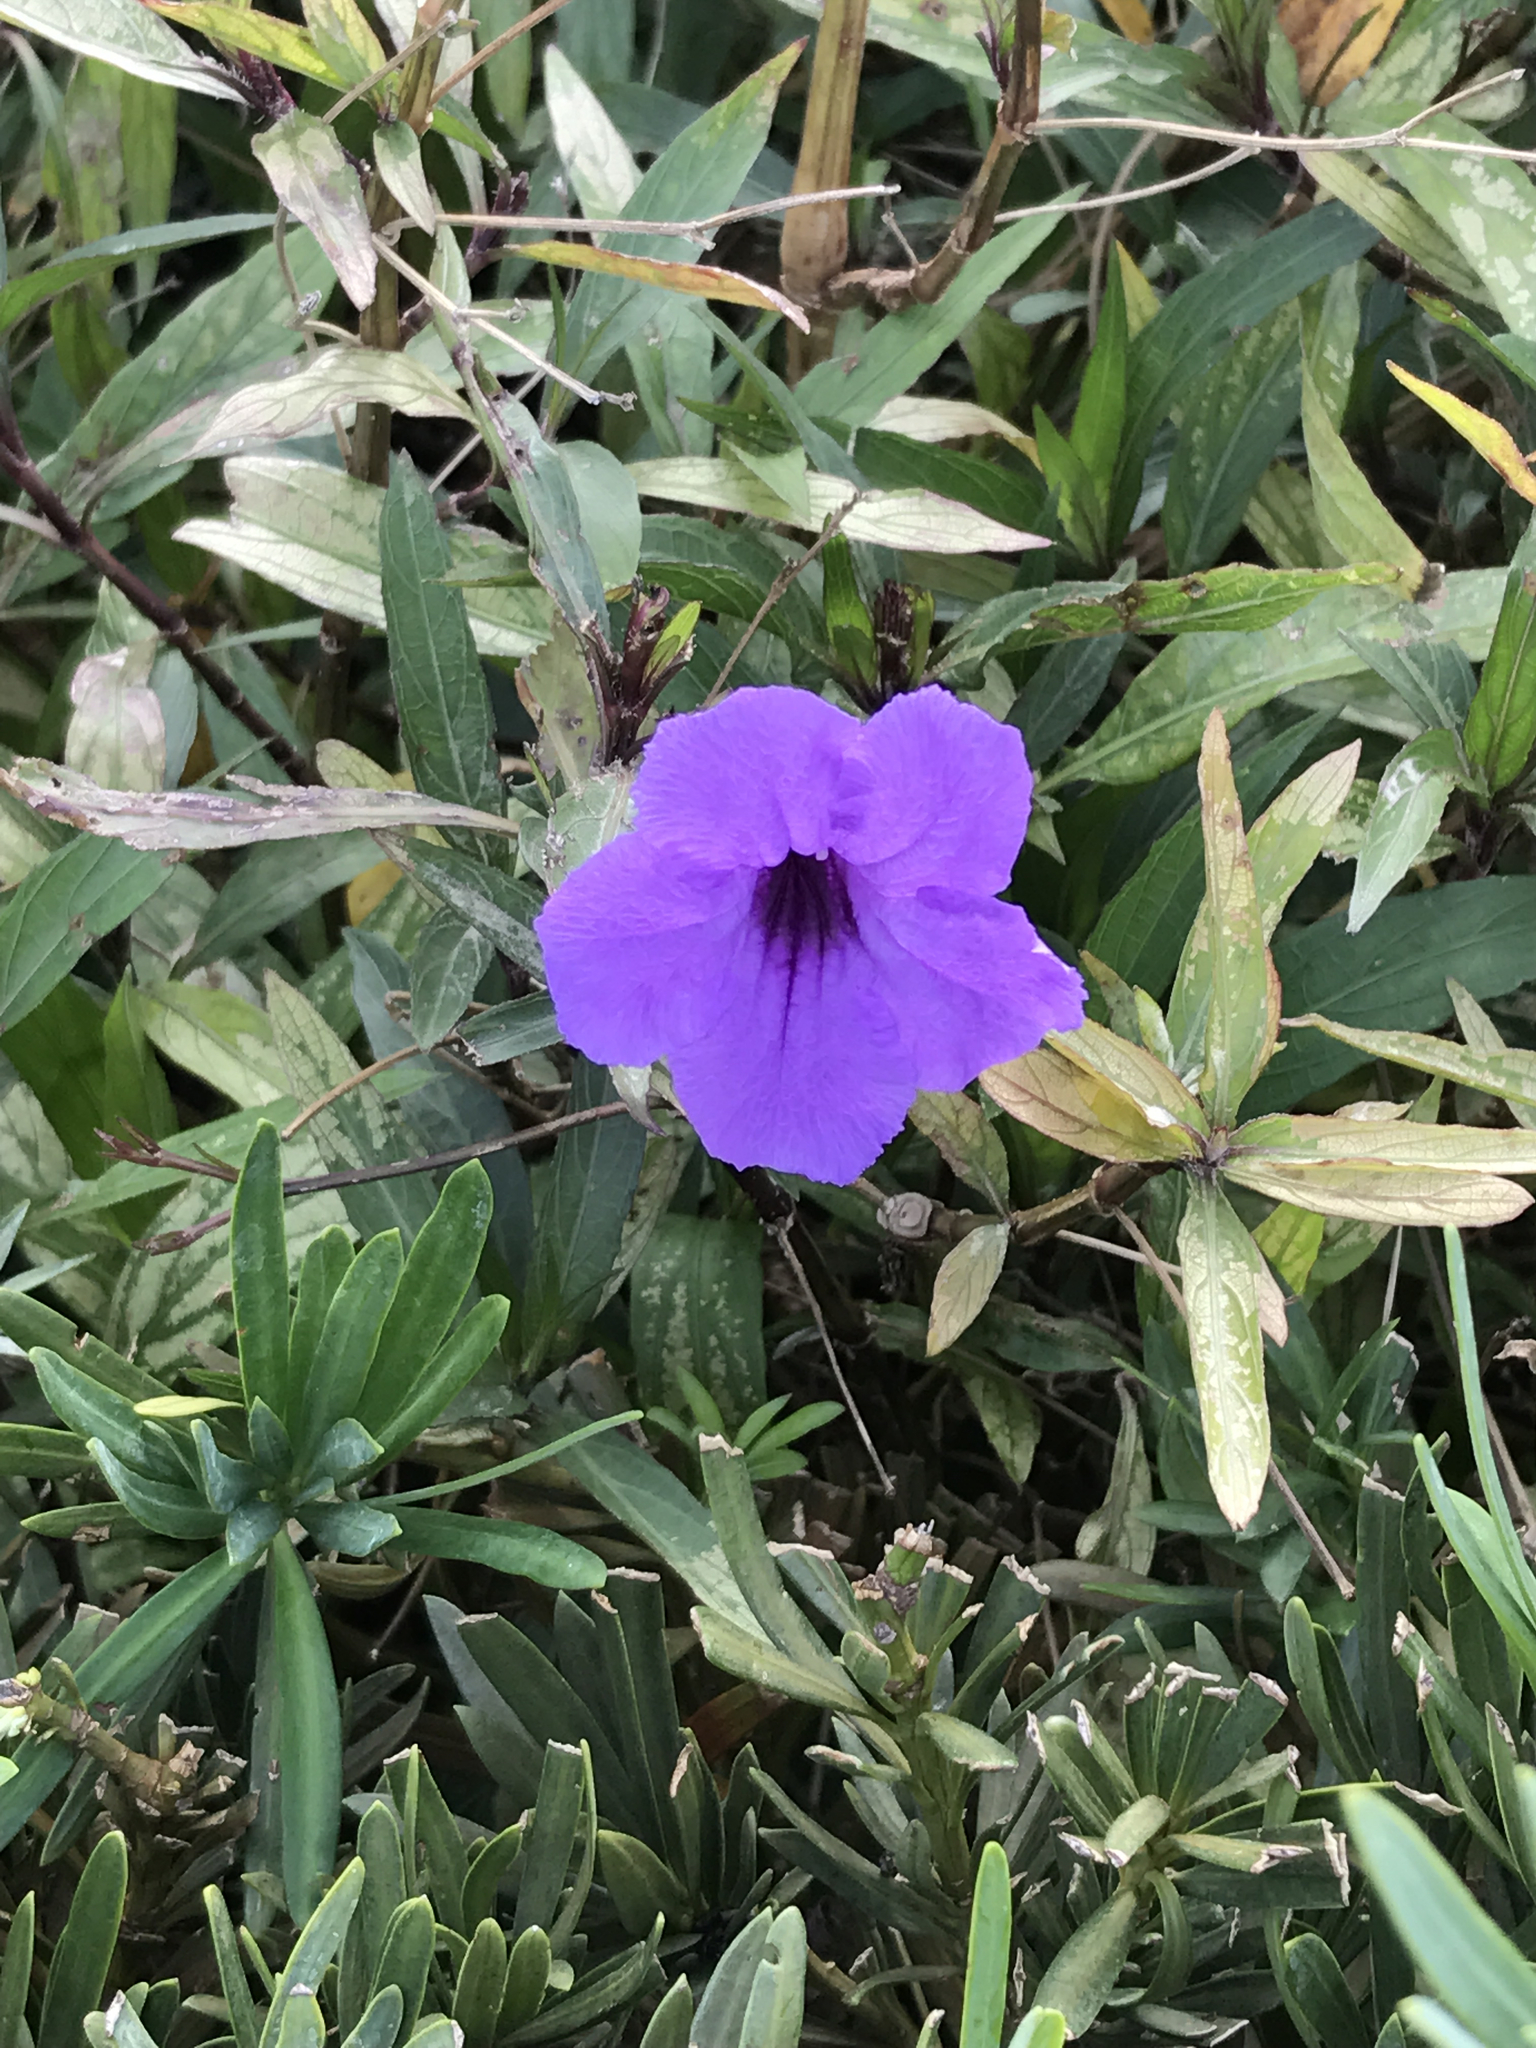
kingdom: Plantae
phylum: Tracheophyta
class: Magnoliopsida
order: Lamiales
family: Acanthaceae
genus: Ruellia
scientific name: Ruellia simplex
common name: Softseed wild petunia
